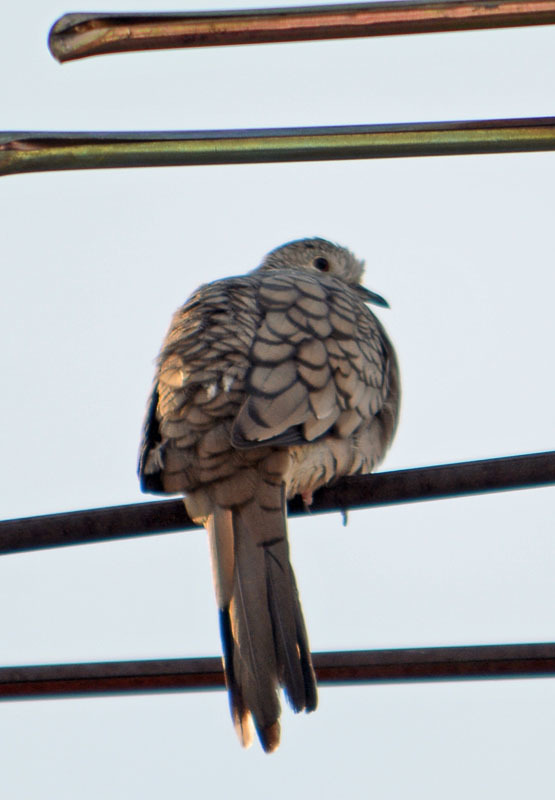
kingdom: Animalia
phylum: Chordata
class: Aves
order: Columbiformes
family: Columbidae
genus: Columbina
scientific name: Columbina inca
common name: Inca dove
